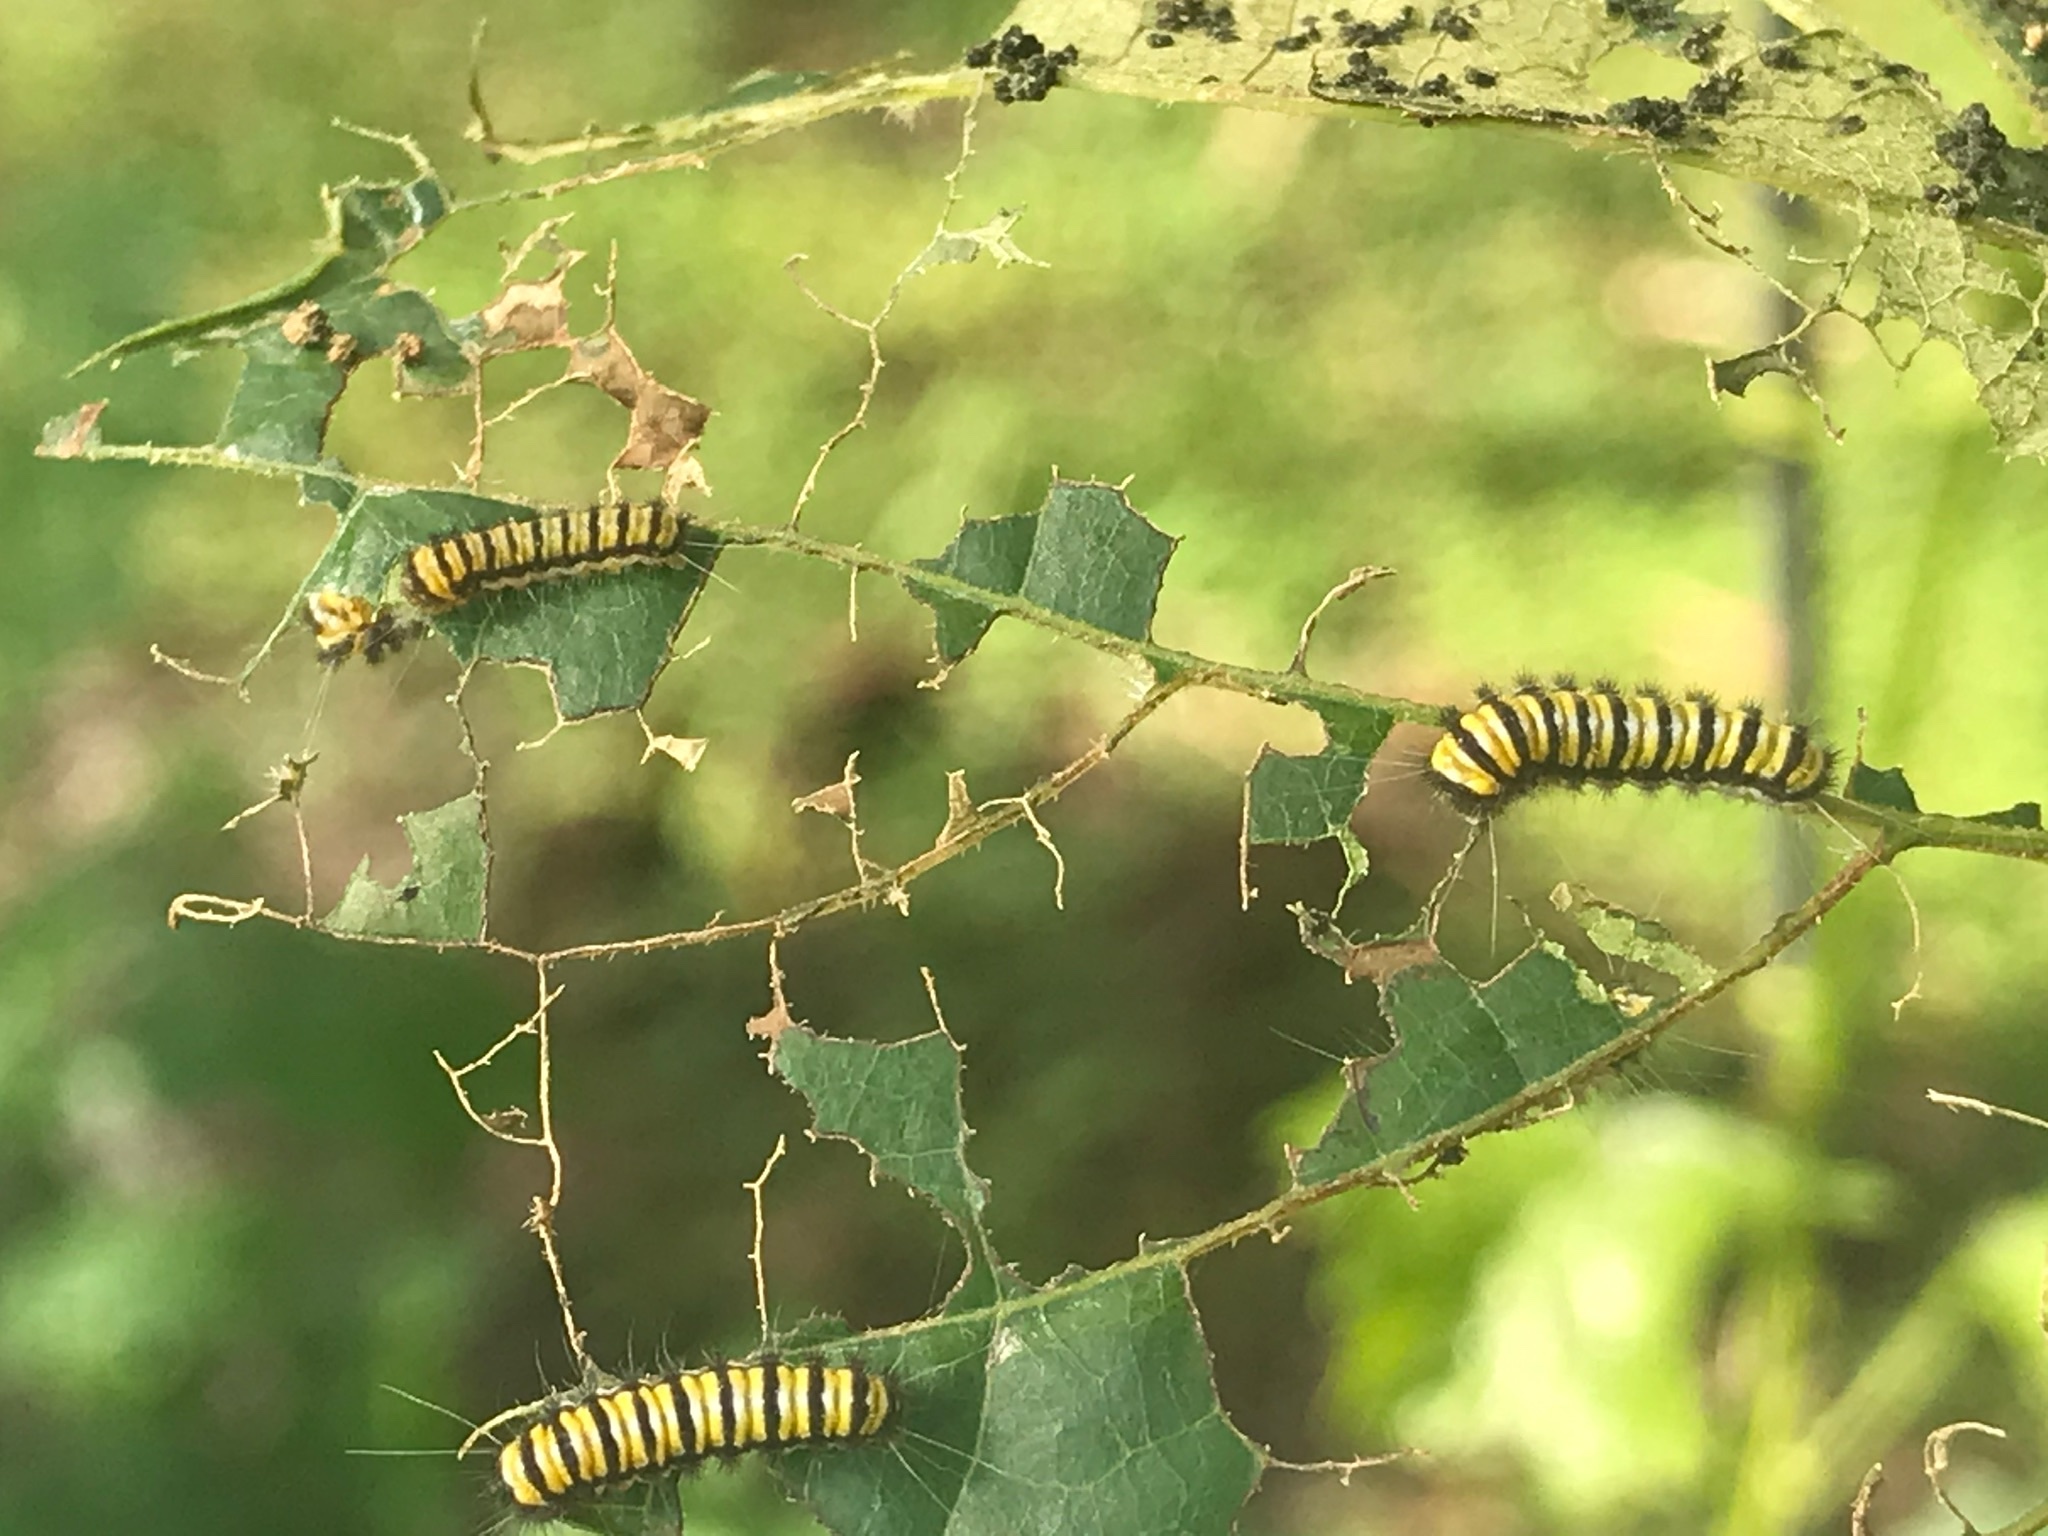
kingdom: Animalia
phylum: Arthropoda
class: Insecta
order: Lepidoptera
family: Zygaenidae
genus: Harrisina
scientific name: Harrisina americana
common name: Grapeleaf skeletonizer moth
